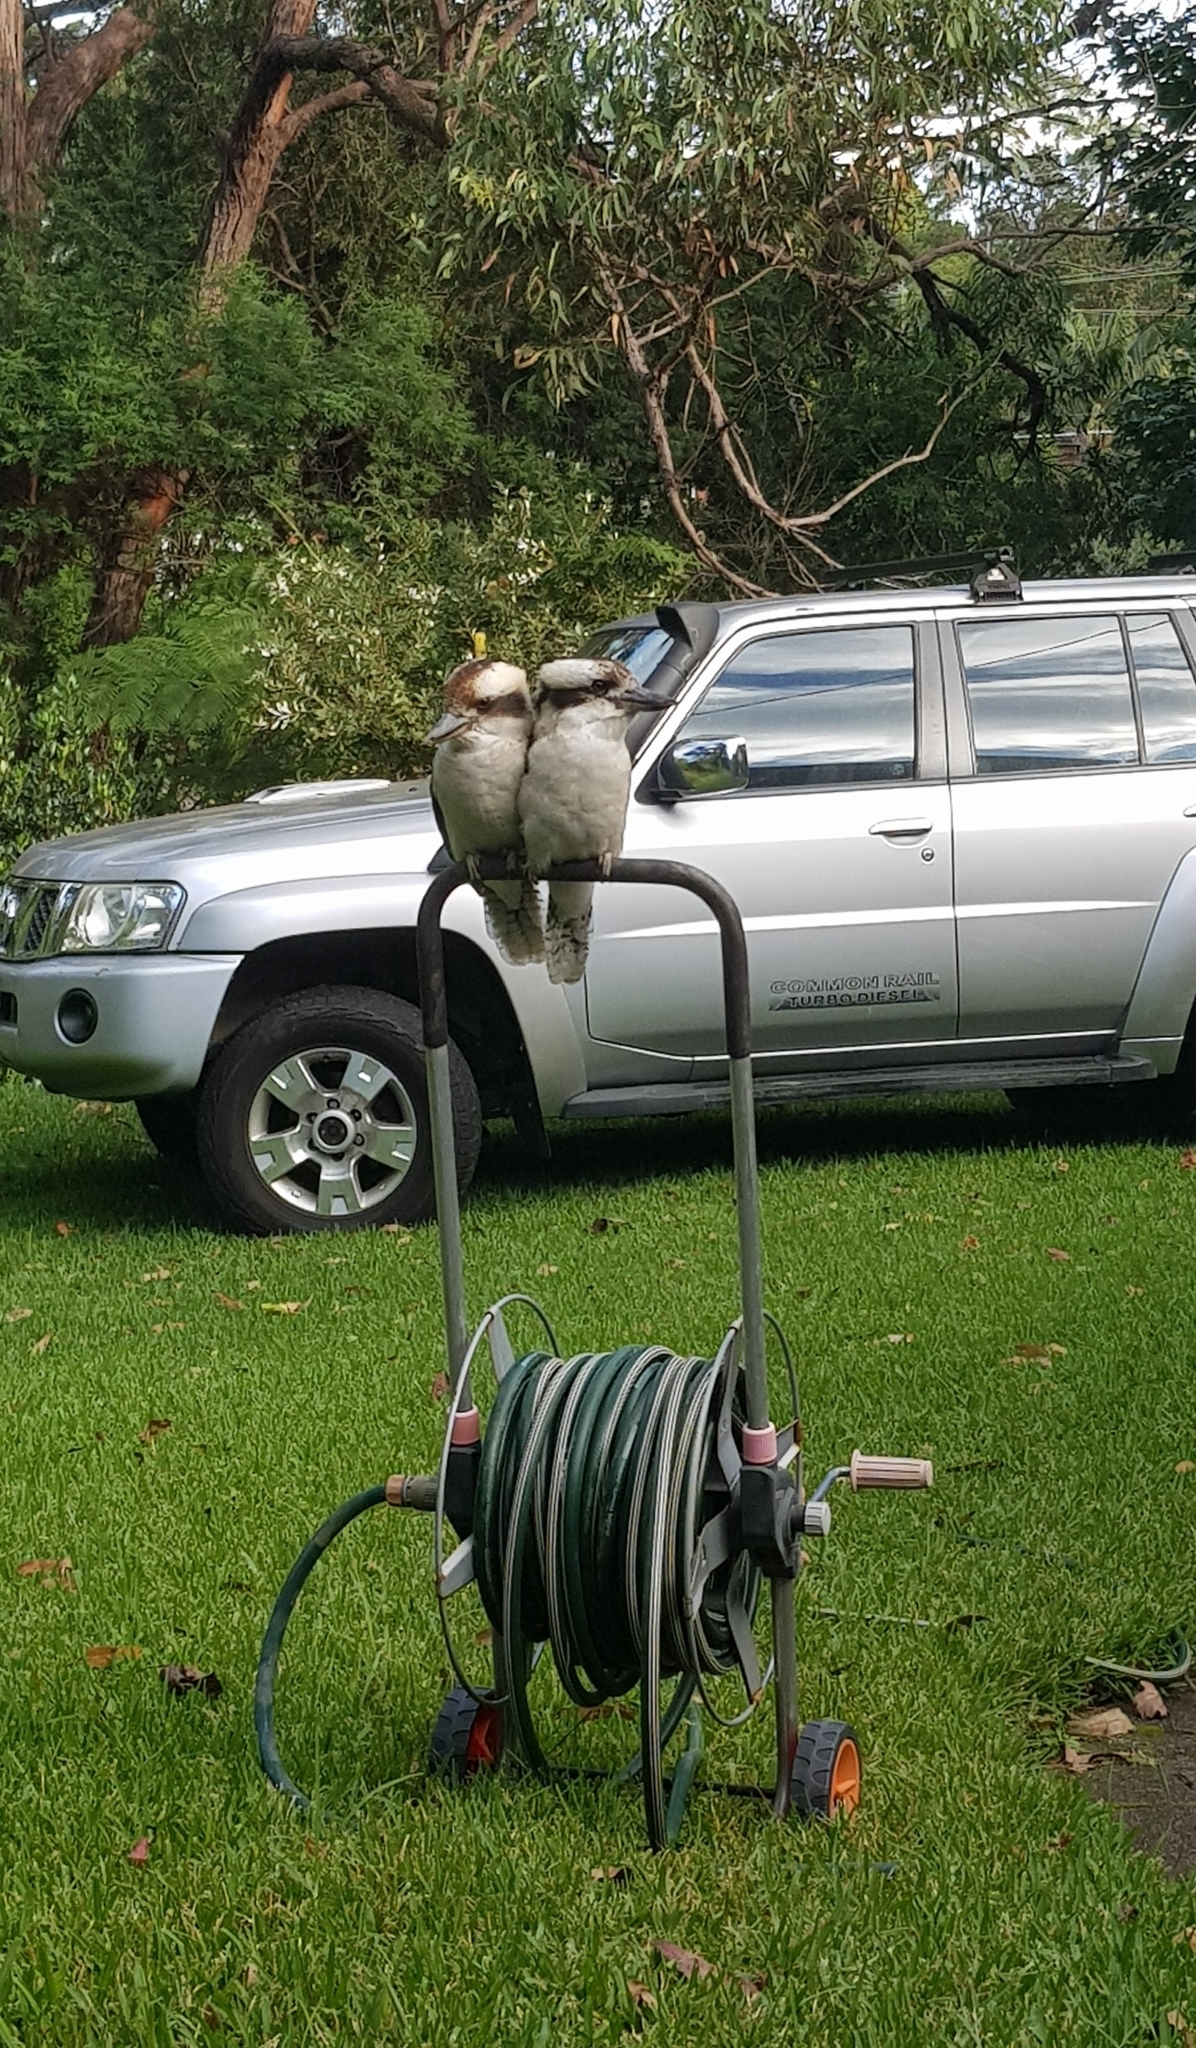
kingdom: Animalia
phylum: Chordata
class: Aves
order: Coraciiformes
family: Alcedinidae
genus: Dacelo
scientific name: Dacelo novaeguineae
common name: Laughing kookaburra
